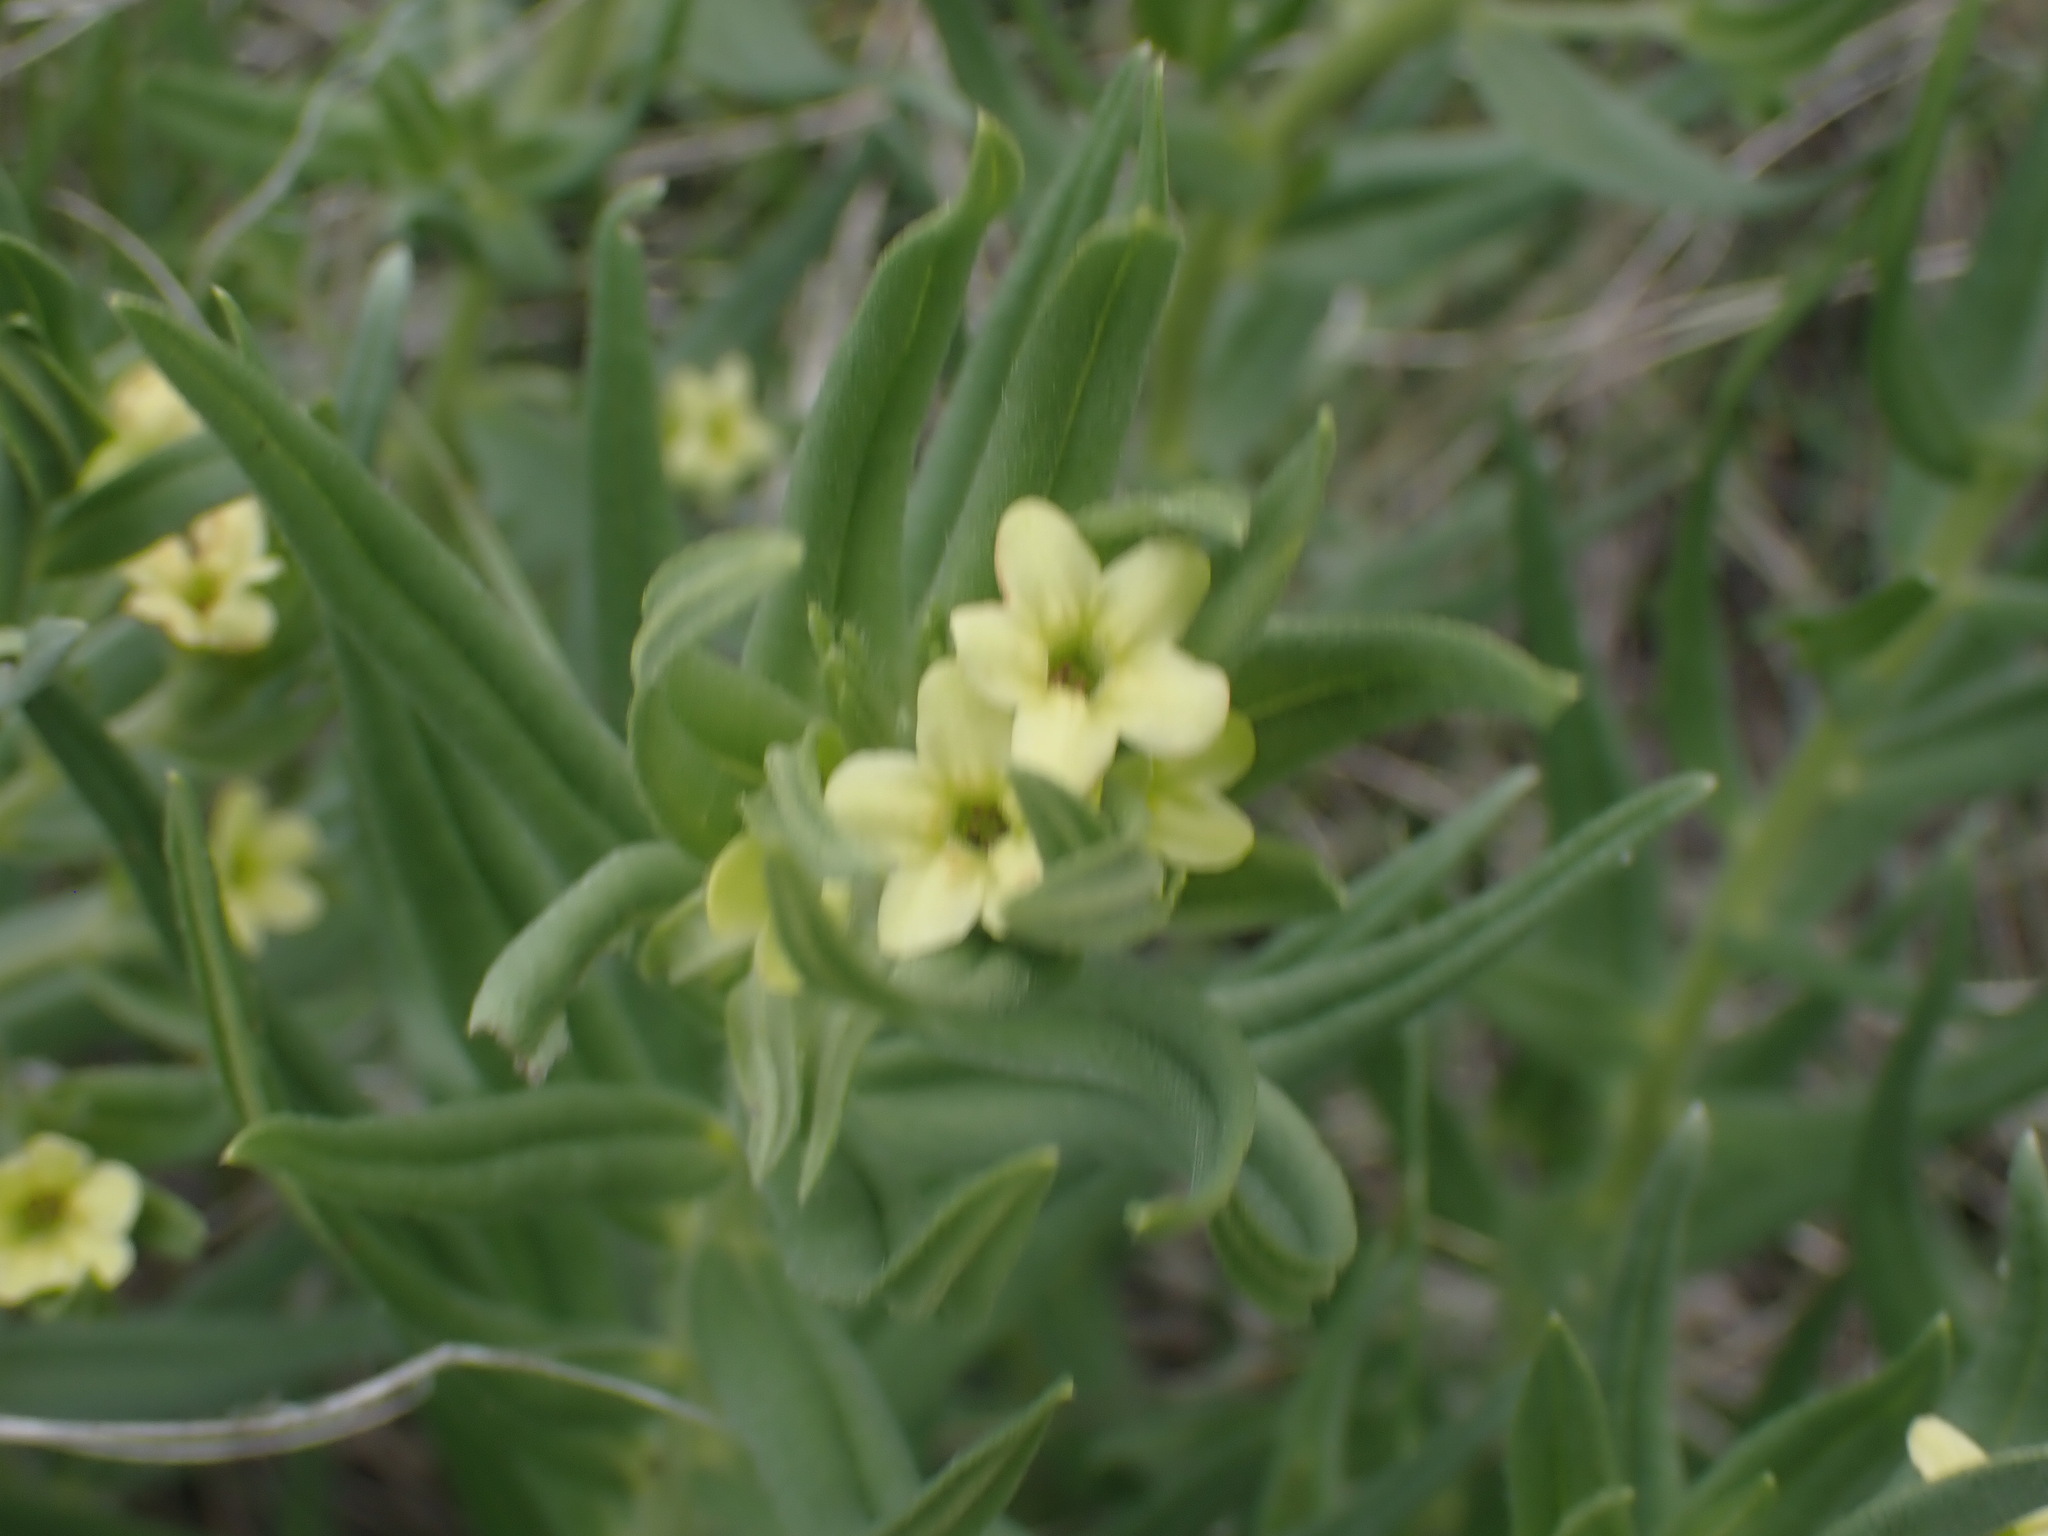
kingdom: Plantae
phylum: Tracheophyta
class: Magnoliopsida
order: Boraginales
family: Boraginaceae
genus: Lithospermum
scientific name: Lithospermum ruderale
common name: Western gromwell
